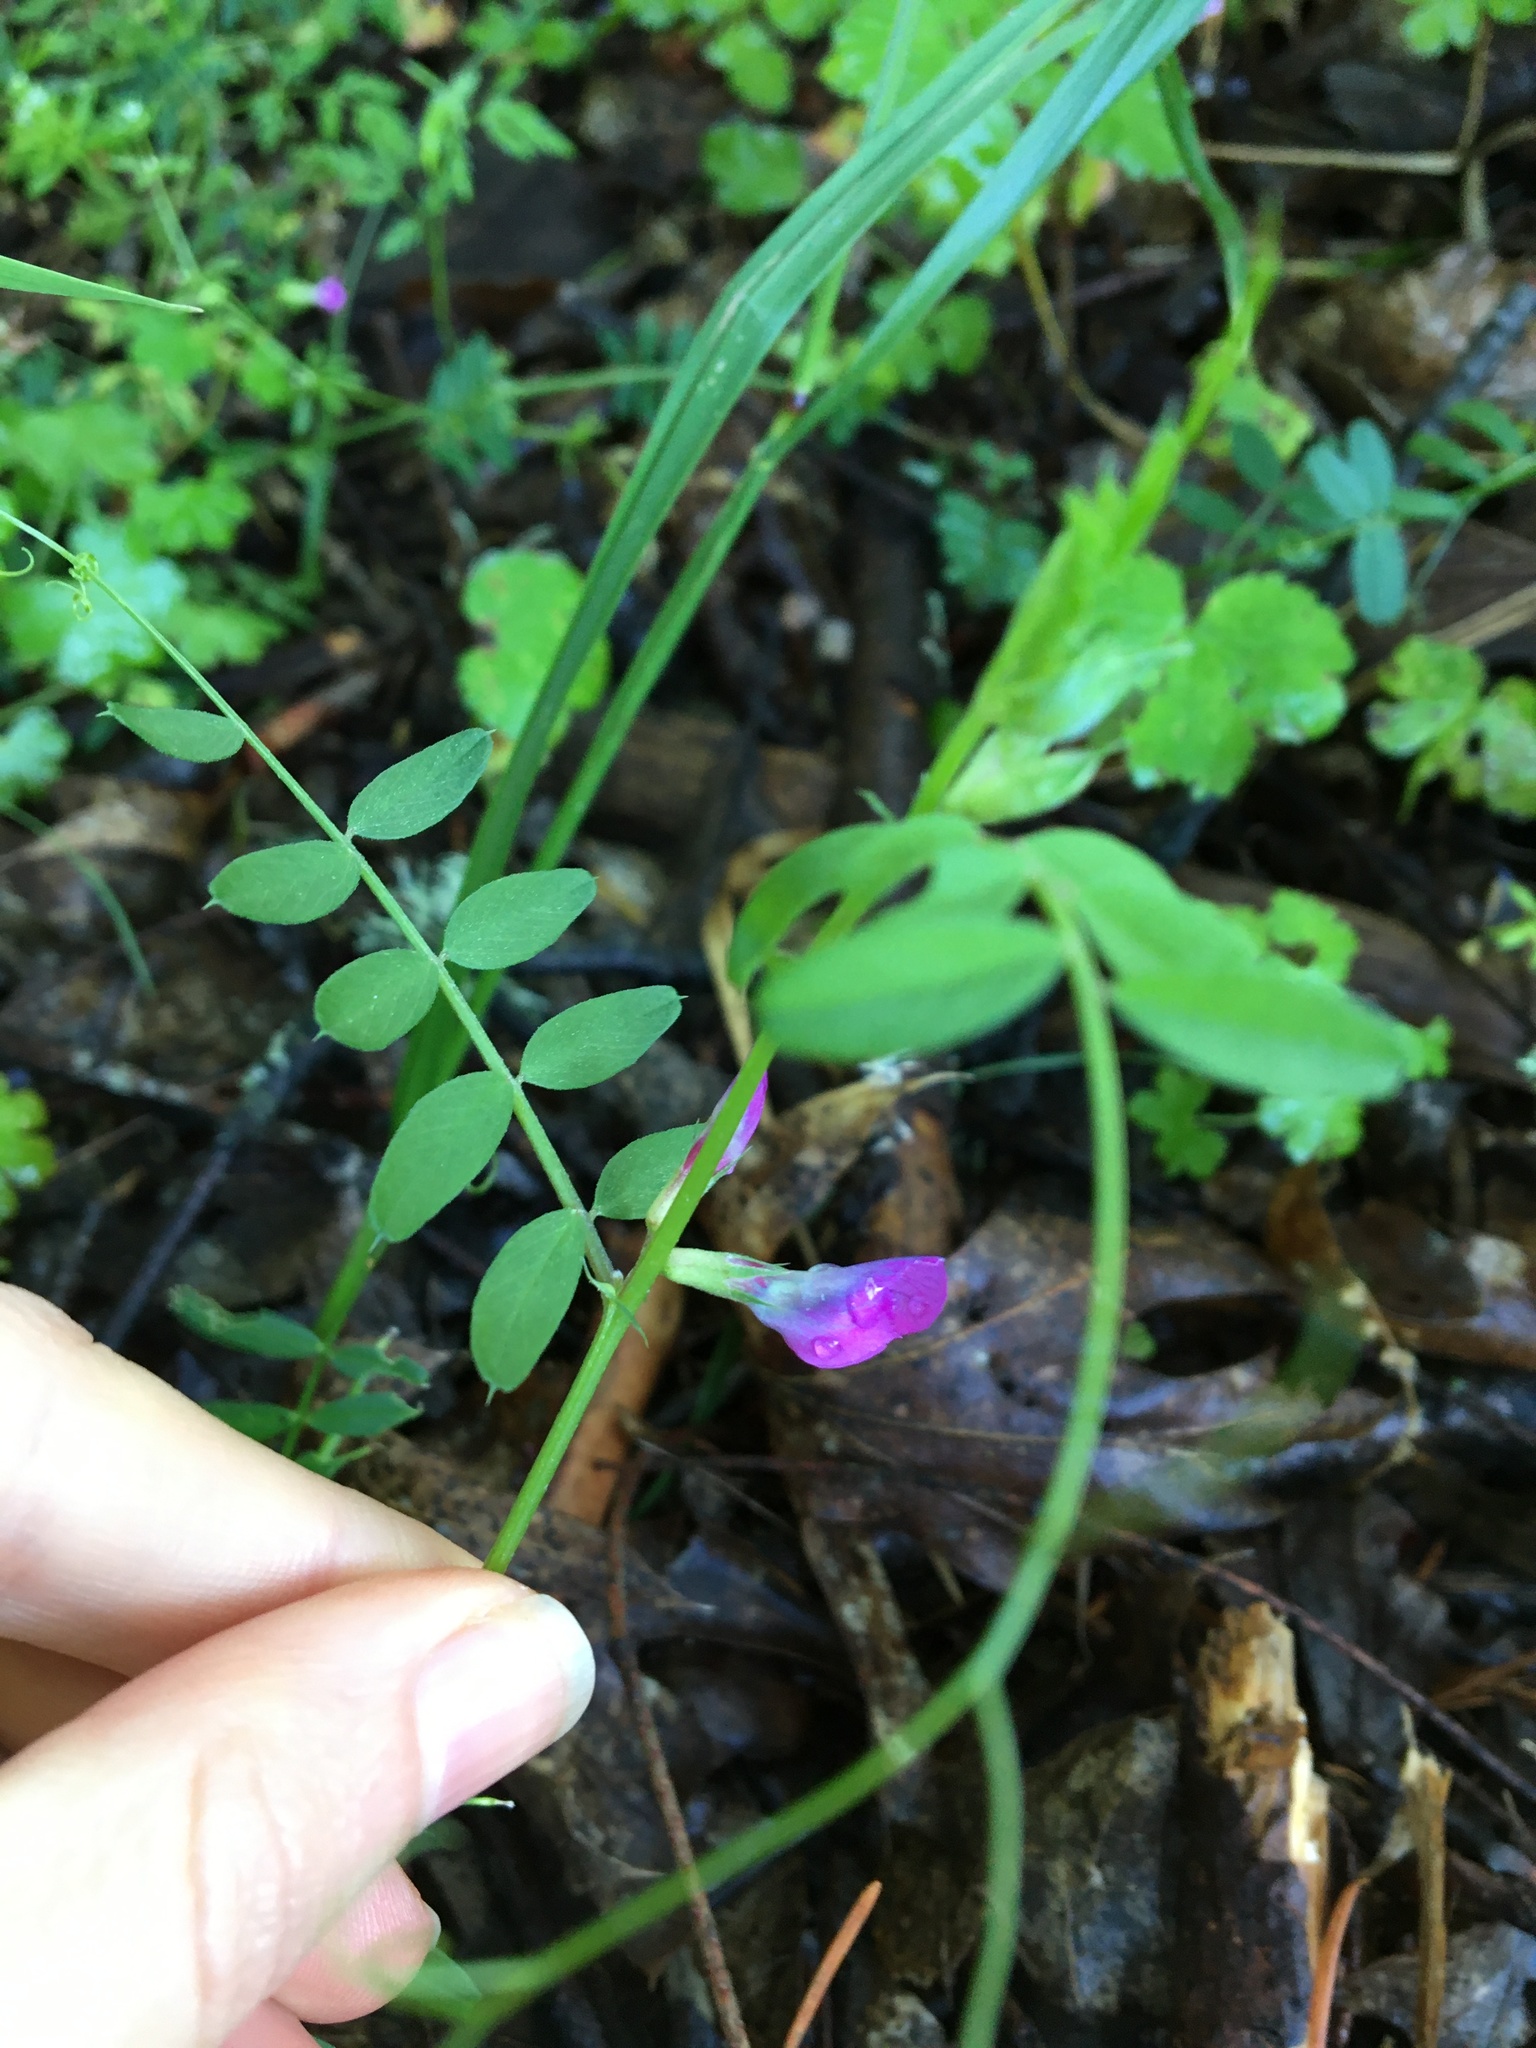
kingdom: Plantae
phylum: Tracheophyta
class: Magnoliopsida
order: Fabales
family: Fabaceae
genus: Vicia
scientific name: Vicia sativa
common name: Garden vetch
